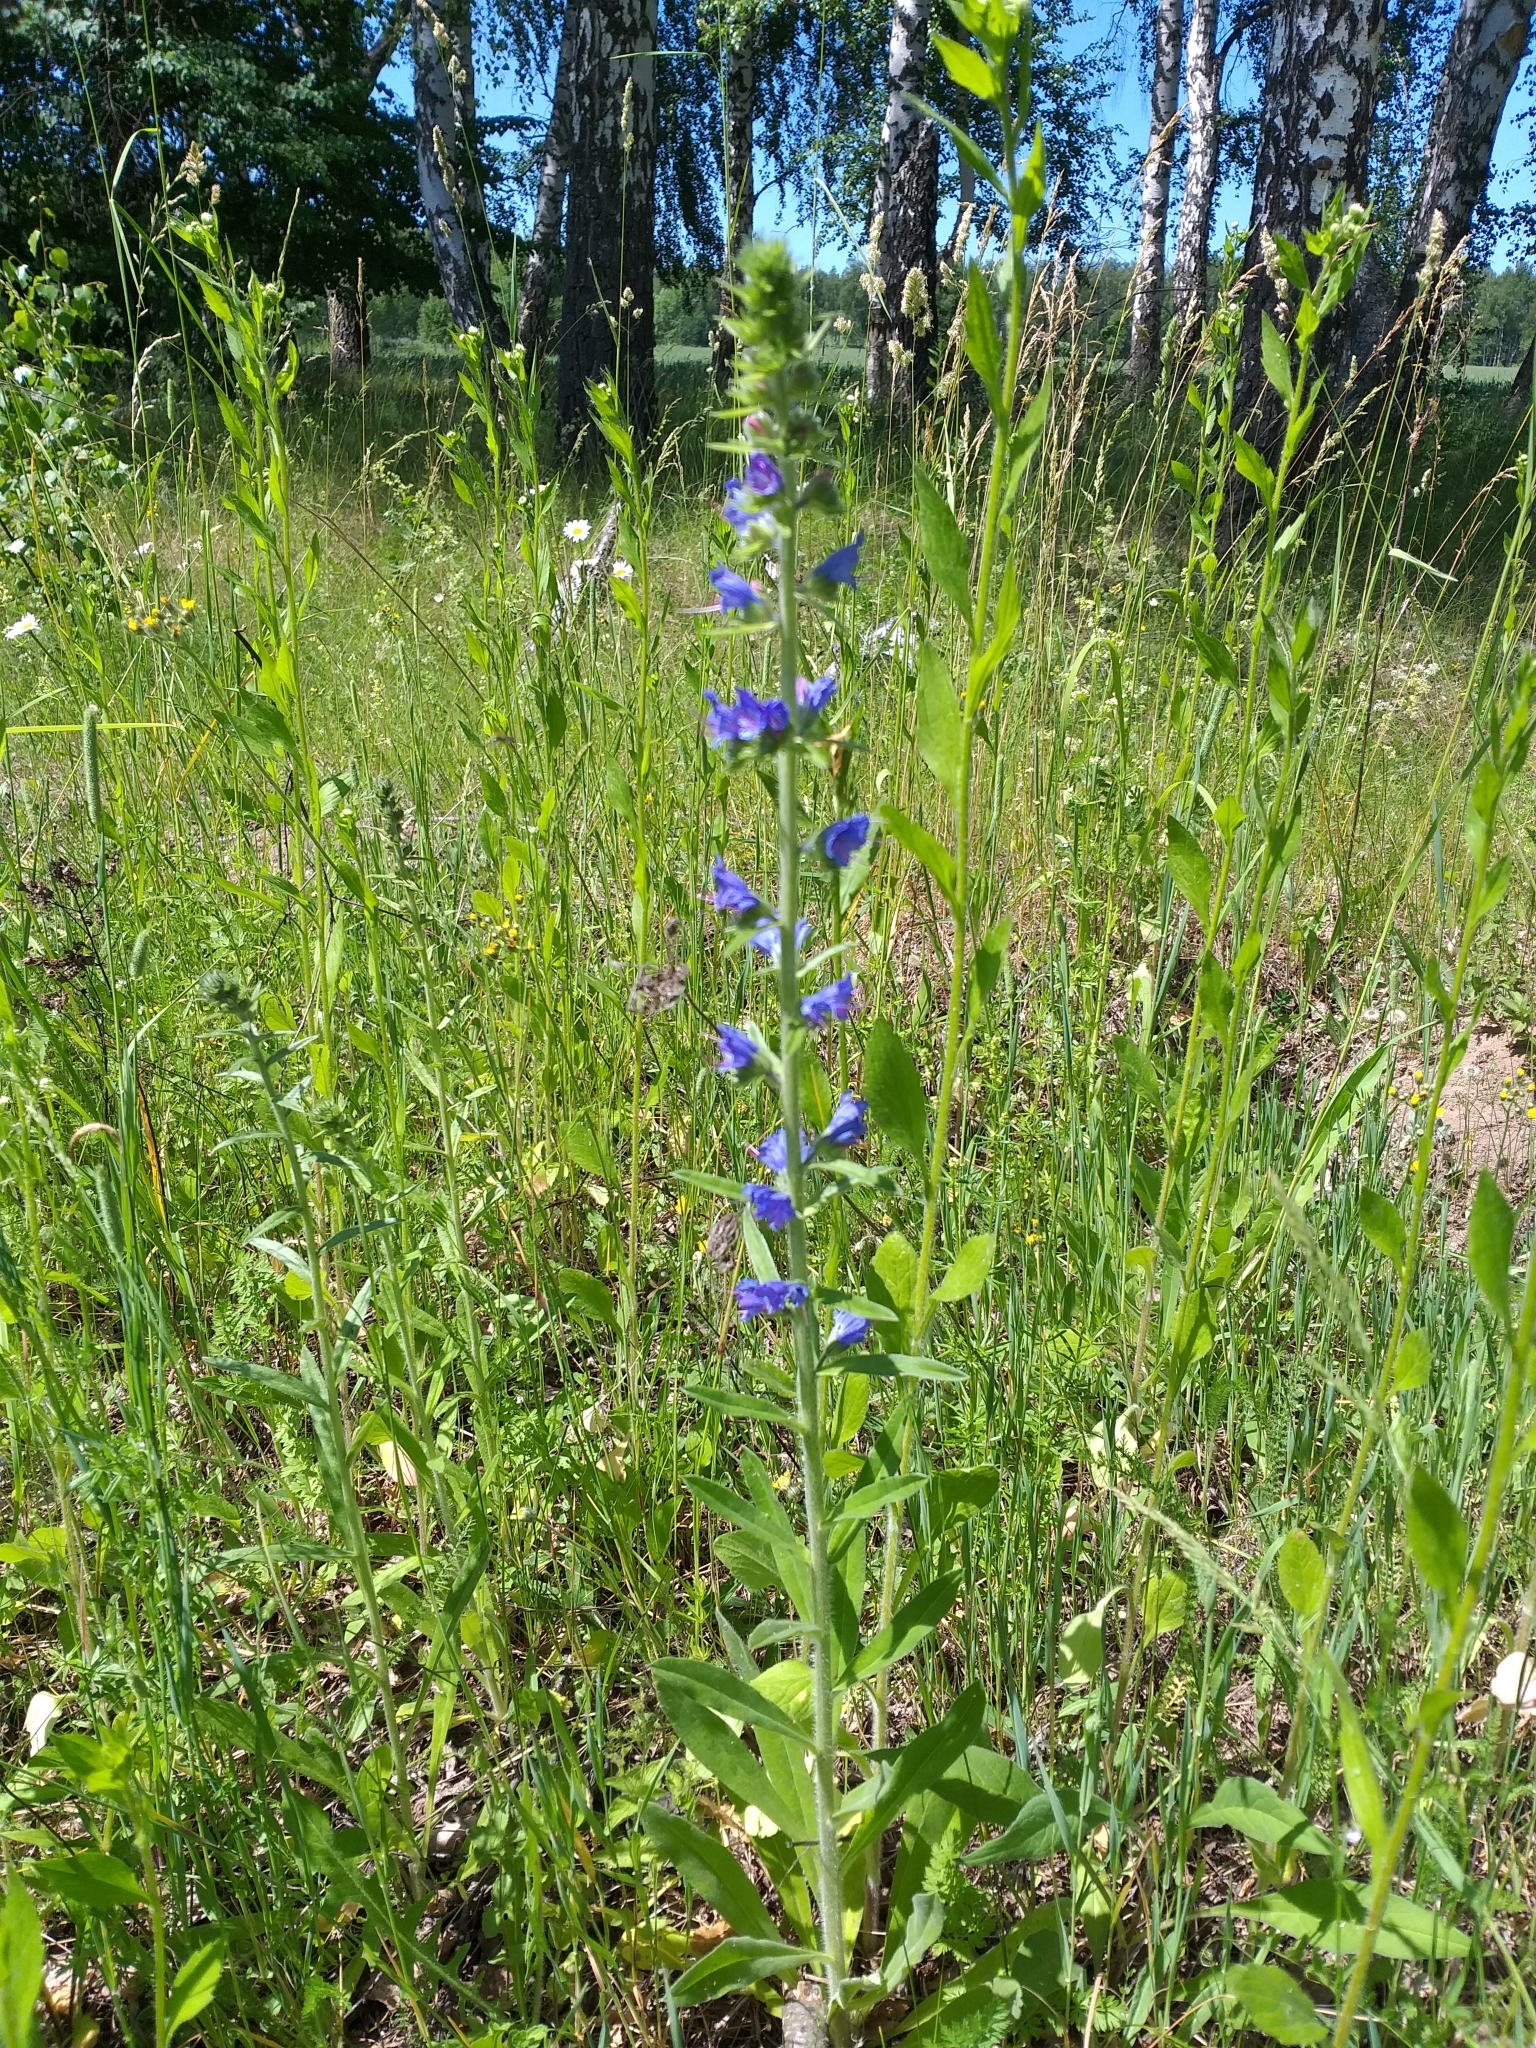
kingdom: Plantae
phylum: Tracheophyta
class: Magnoliopsida
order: Boraginales
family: Boraginaceae
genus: Echium
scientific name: Echium vulgare
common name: Common viper's bugloss
